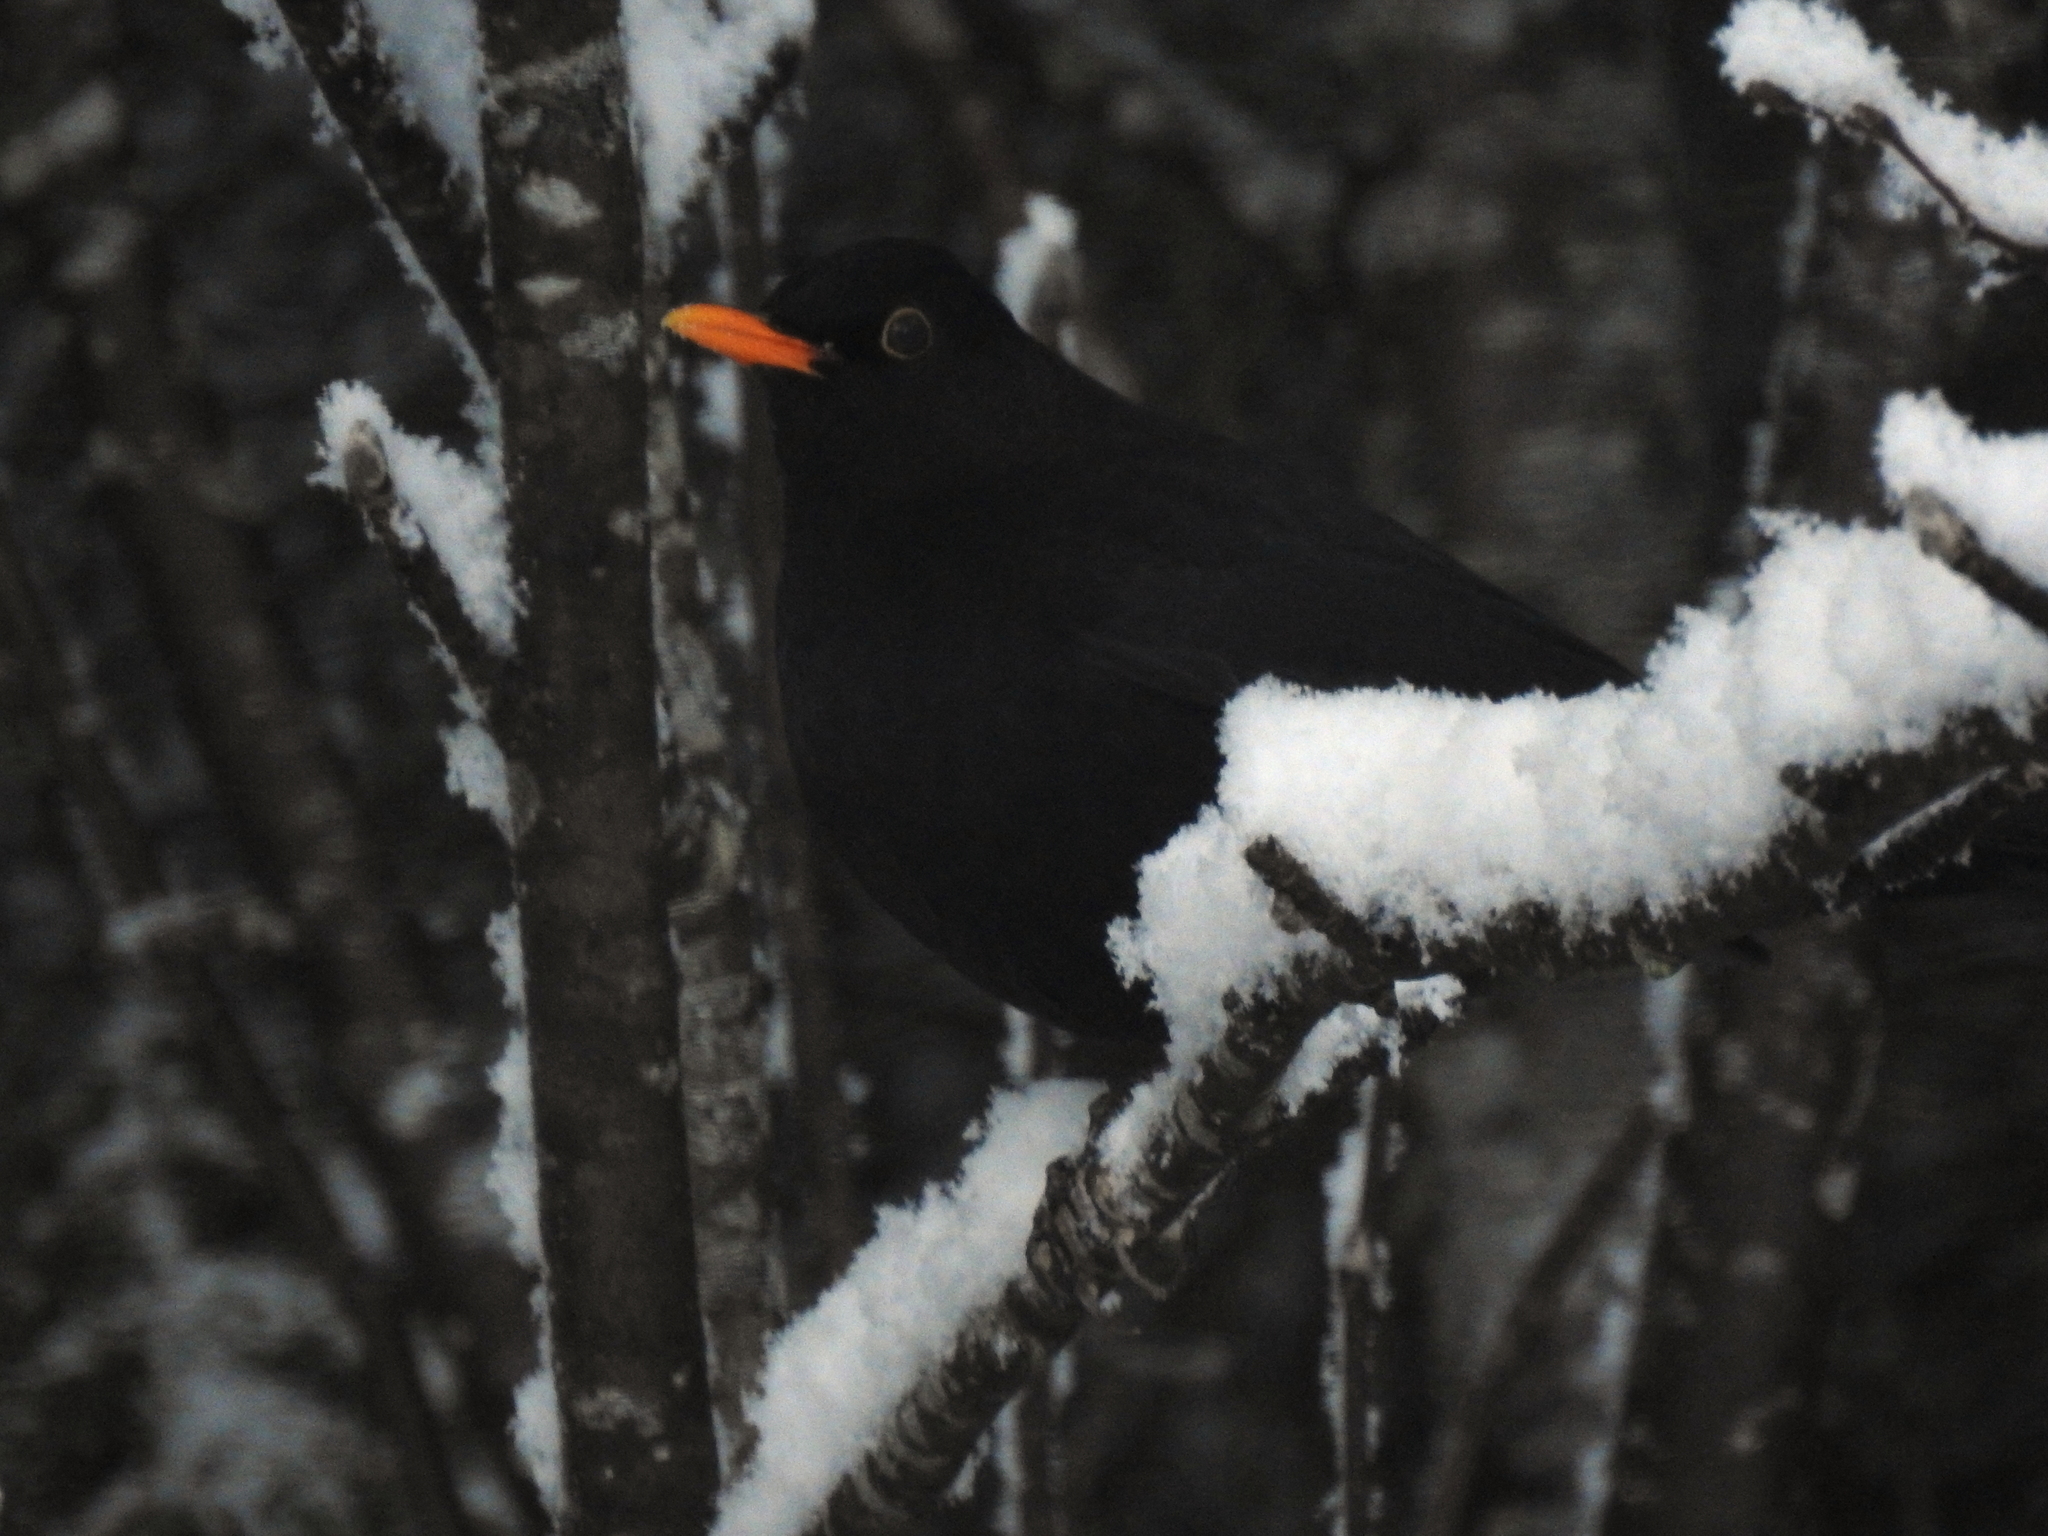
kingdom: Animalia
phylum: Chordata
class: Aves
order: Passeriformes
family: Turdidae
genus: Turdus
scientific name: Turdus merula
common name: Common blackbird
